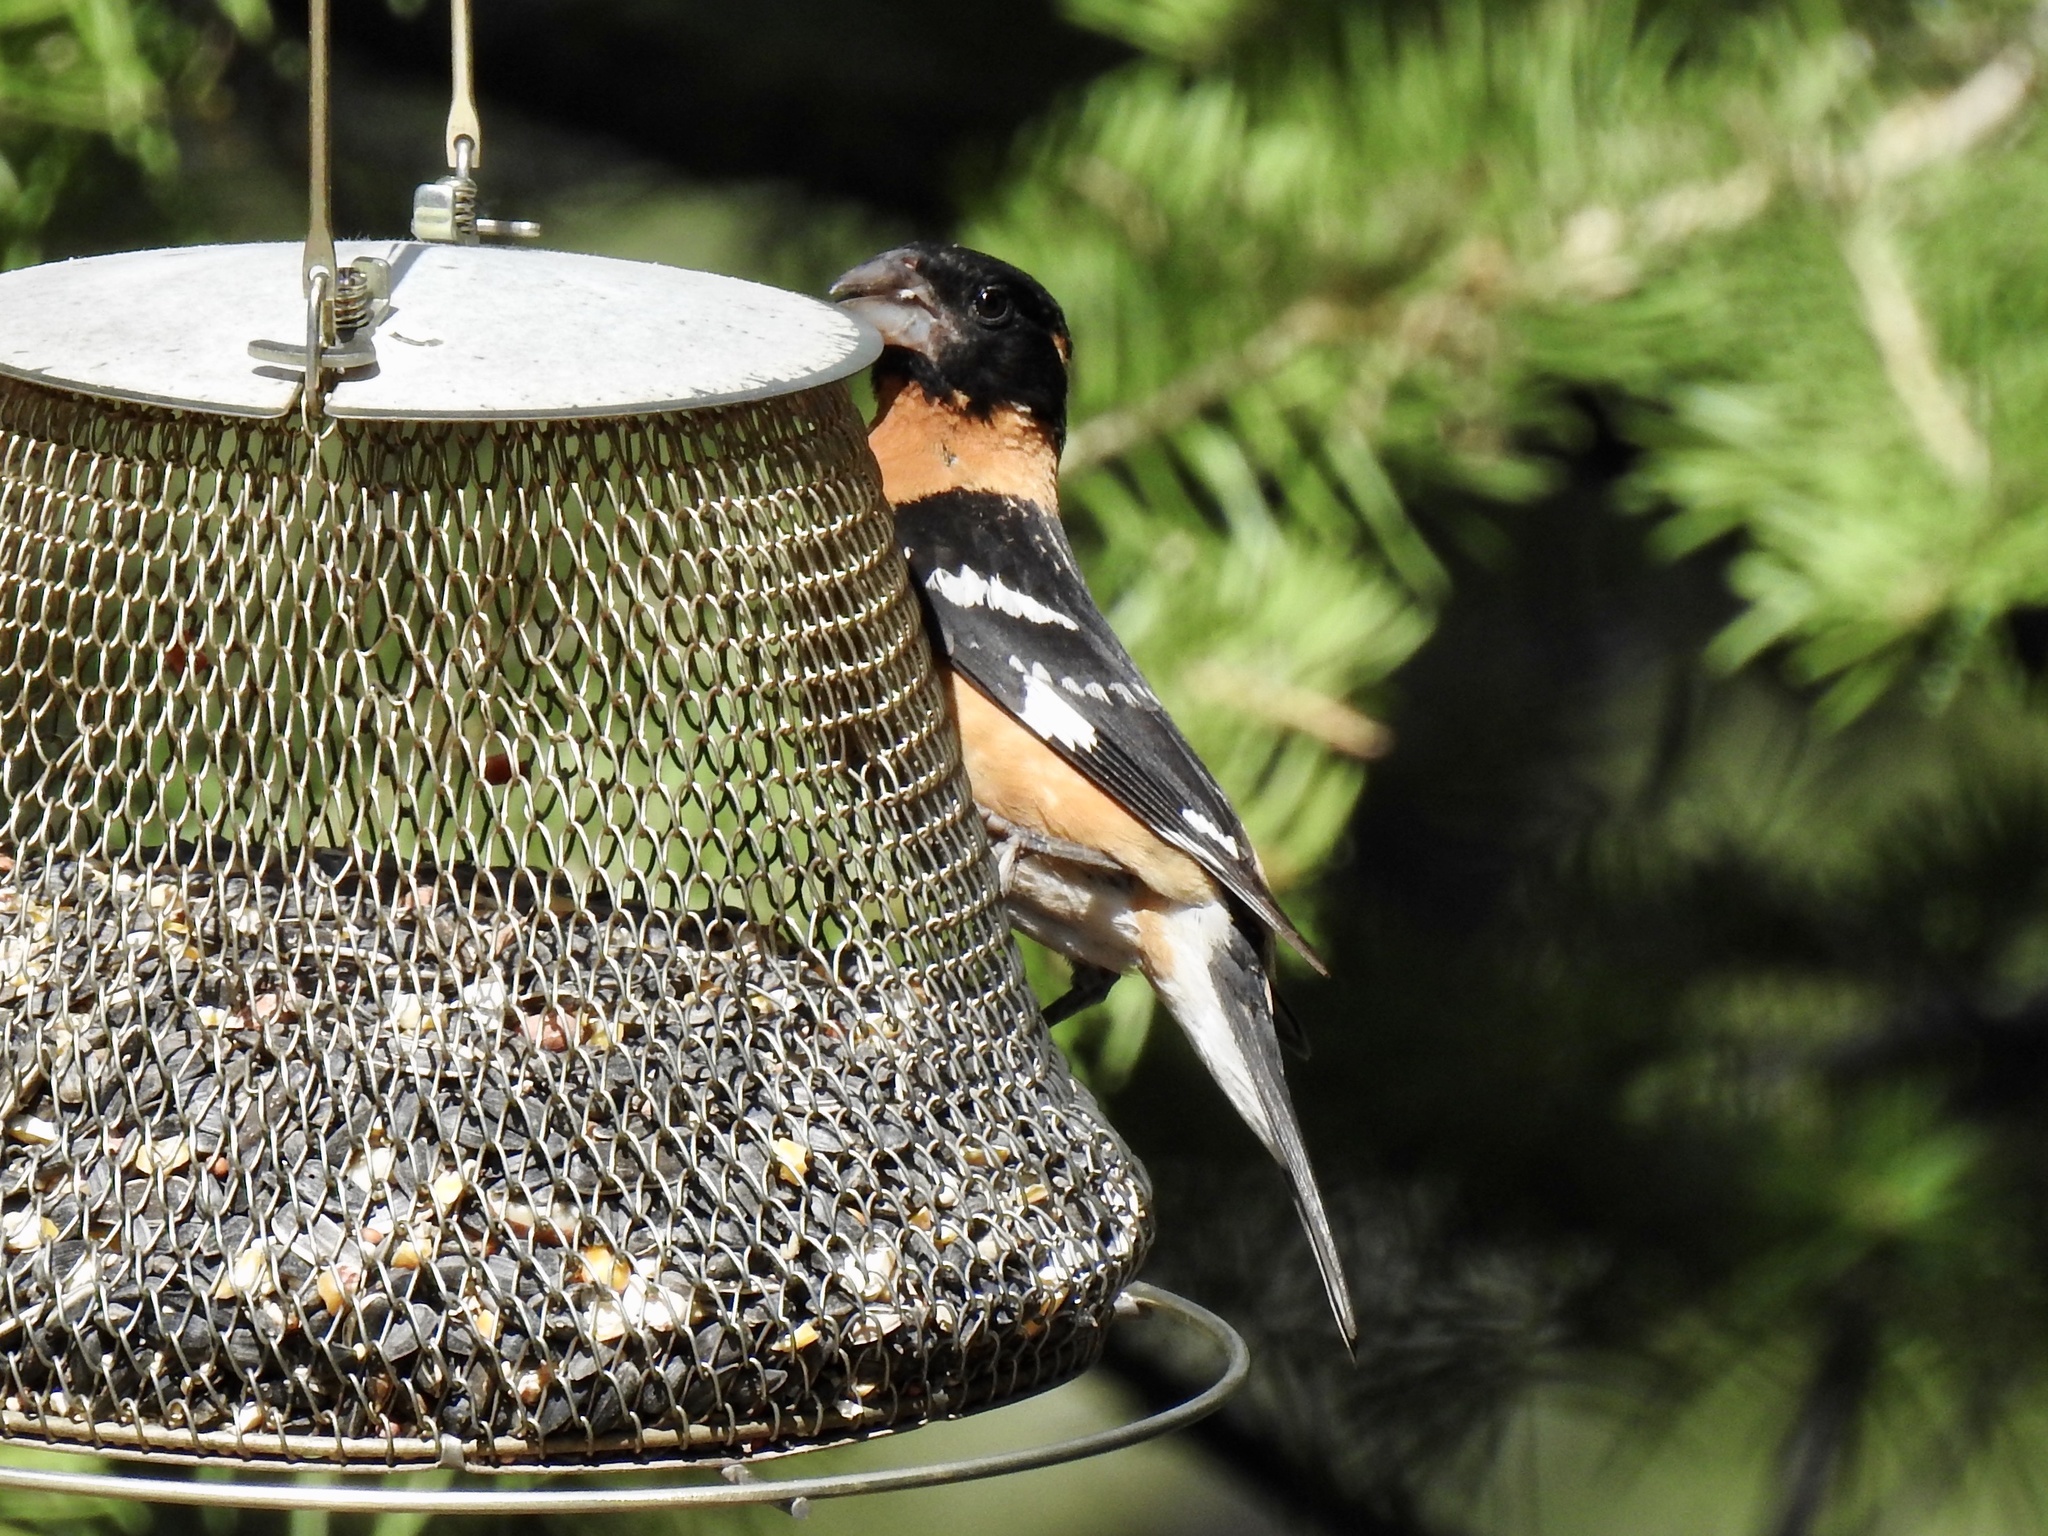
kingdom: Animalia
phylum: Chordata
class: Aves
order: Passeriformes
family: Cardinalidae
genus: Pheucticus
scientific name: Pheucticus melanocephalus
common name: Black-headed grosbeak
